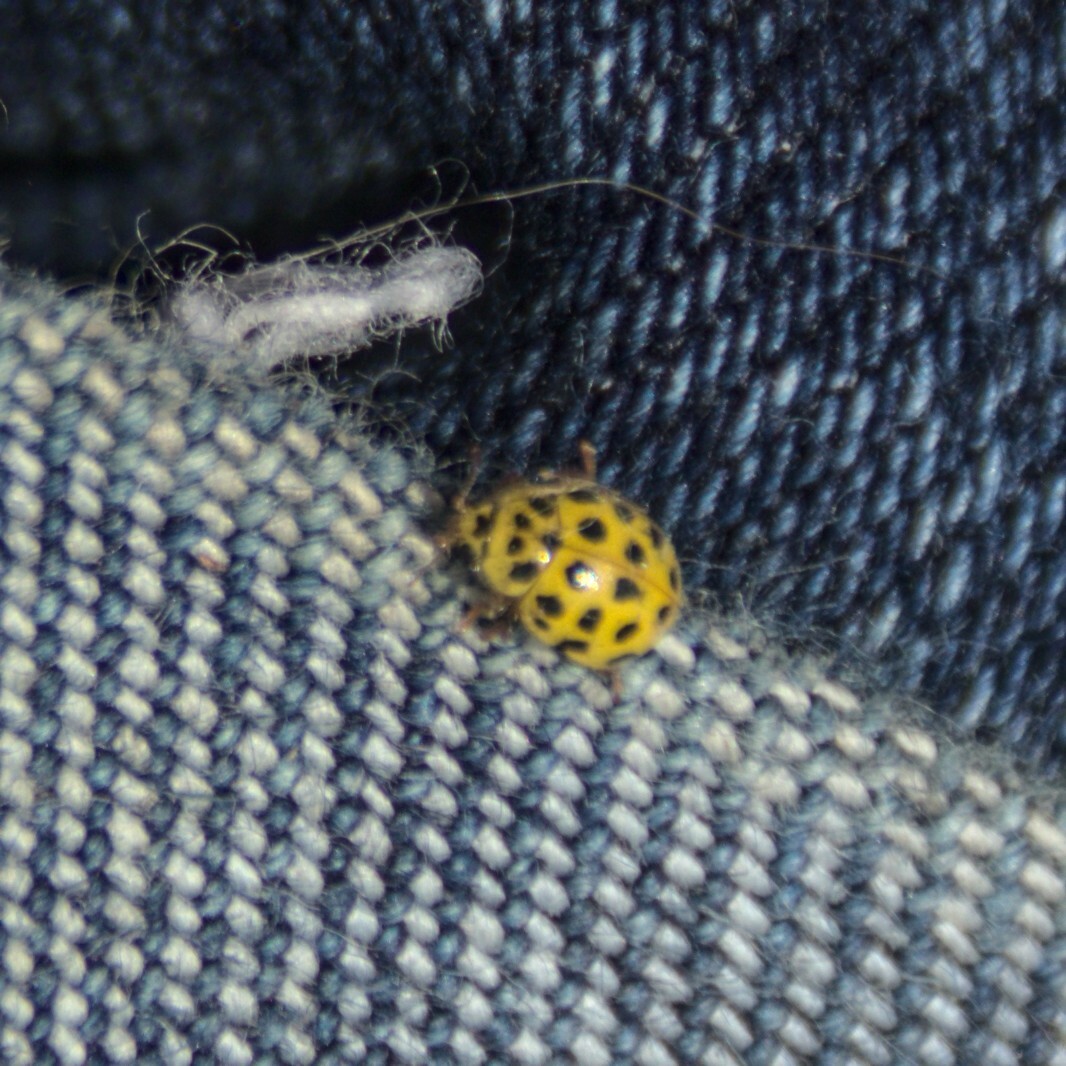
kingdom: Animalia
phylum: Arthropoda
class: Insecta
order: Coleoptera
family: Coccinellidae
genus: Psyllobora
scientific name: Psyllobora vigintiduopunctata
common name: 22-spot ladybird
